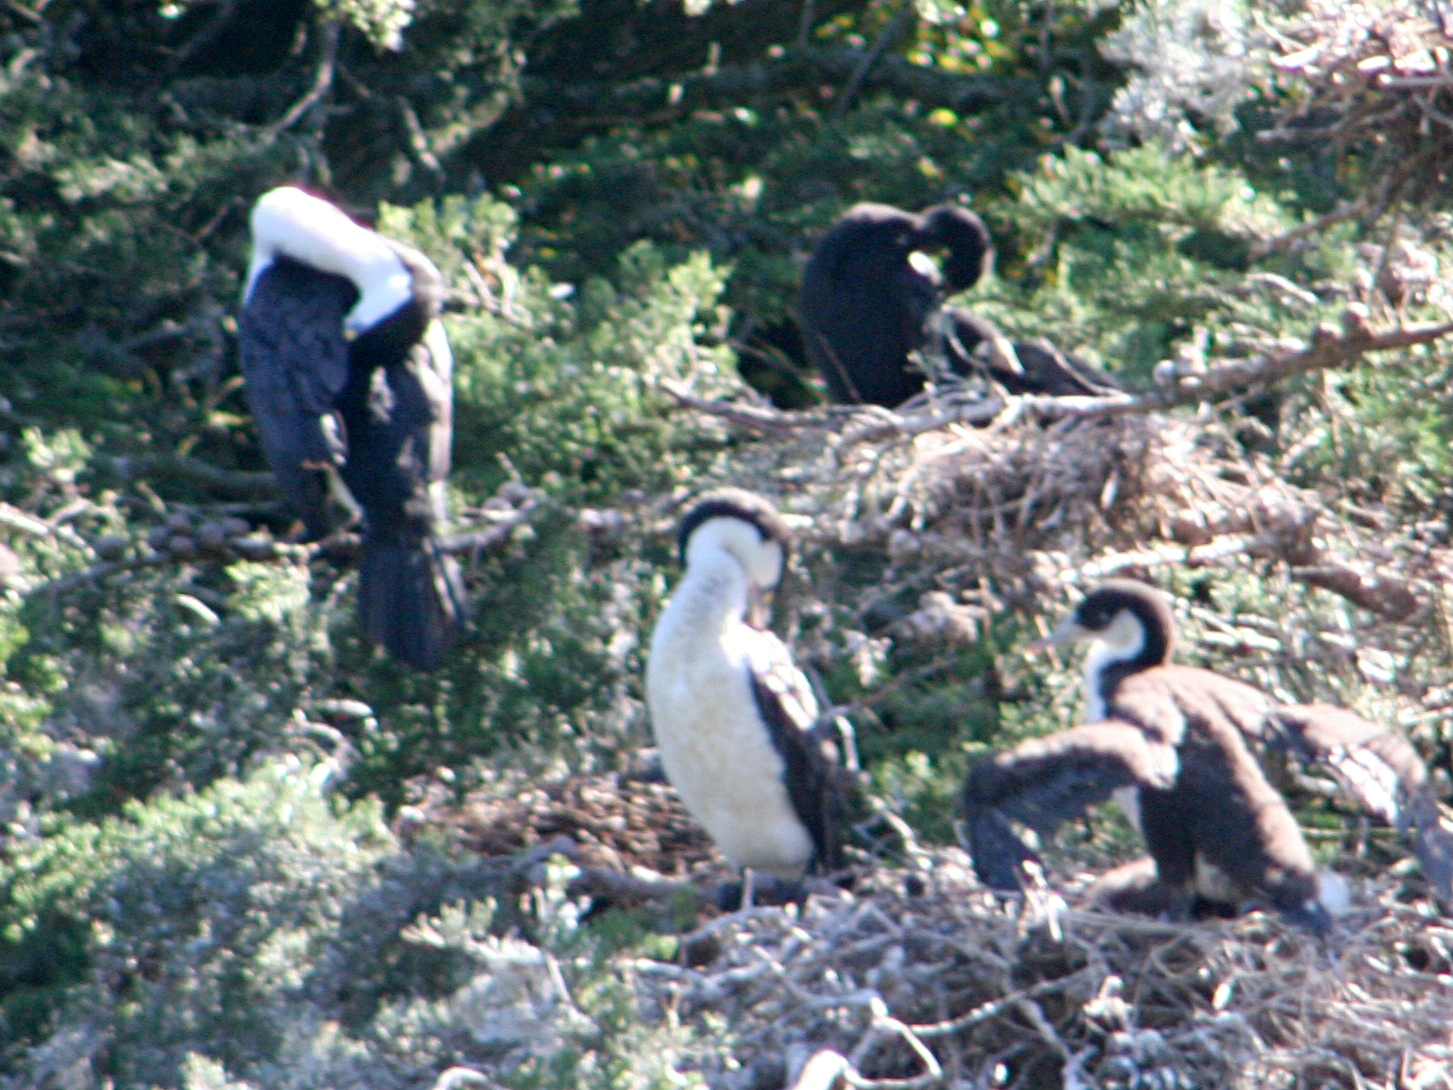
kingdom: Animalia
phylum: Chordata
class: Aves
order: Suliformes
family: Phalacrocoracidae
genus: Phalacrocorax
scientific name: Phalacrocorax varius
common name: Pied cormorant
